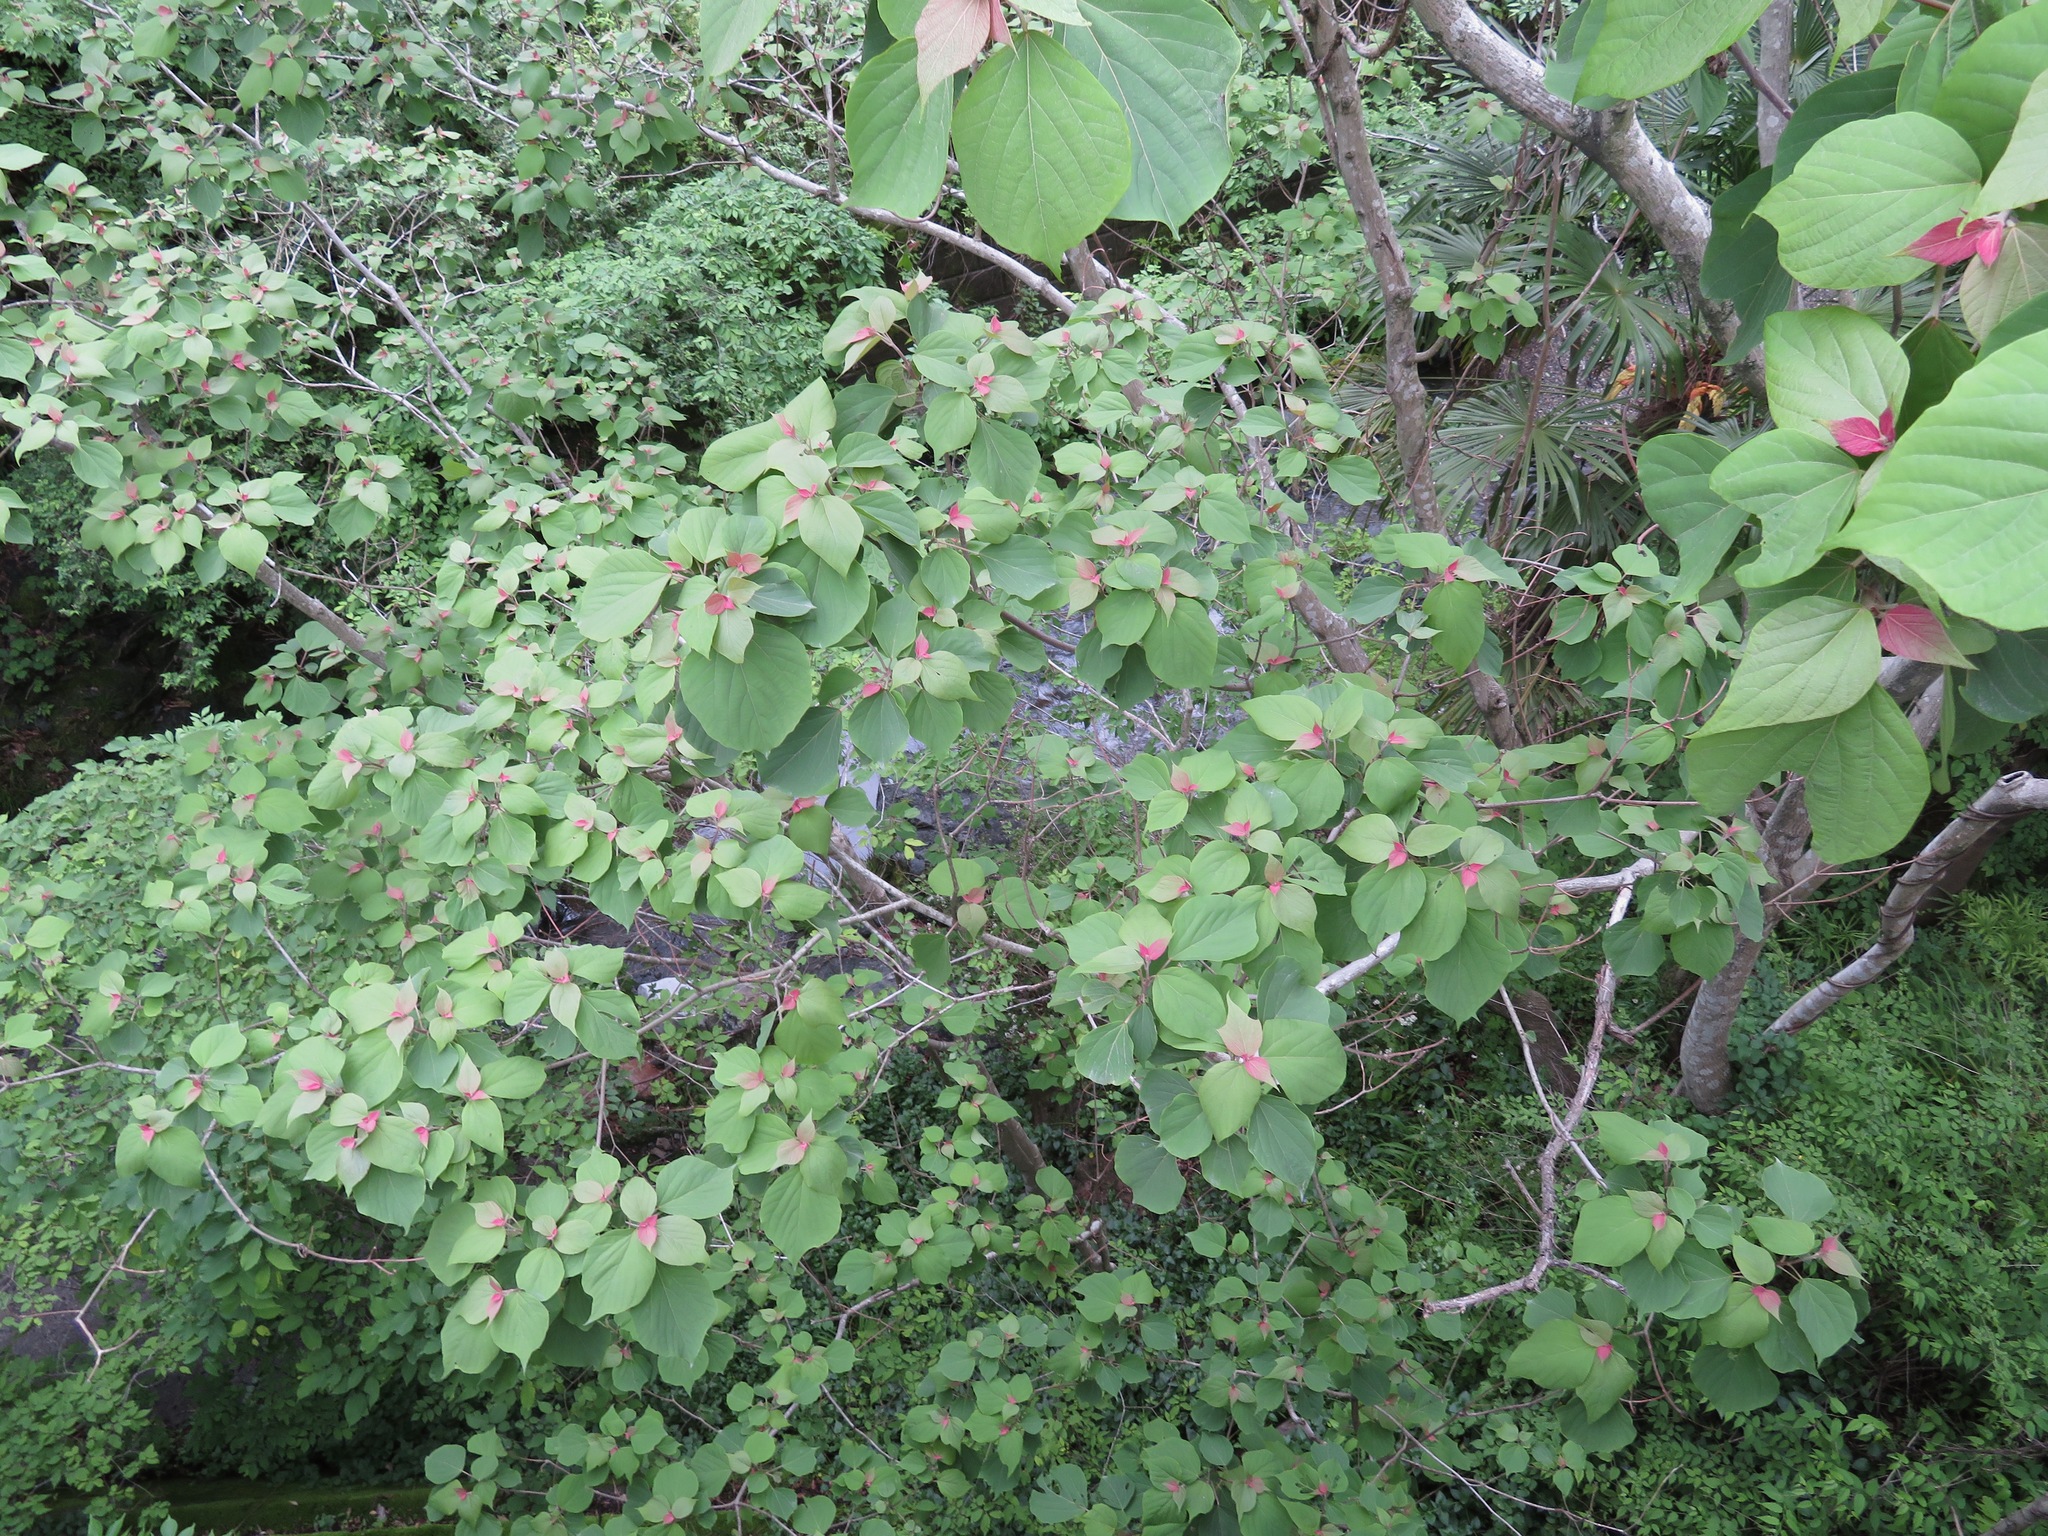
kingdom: Plantae
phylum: Tracheophyta
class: Magnoliopsida
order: Malpighiales
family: Euphorbiaceae
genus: Mallotus
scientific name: Mallotus japonicus
